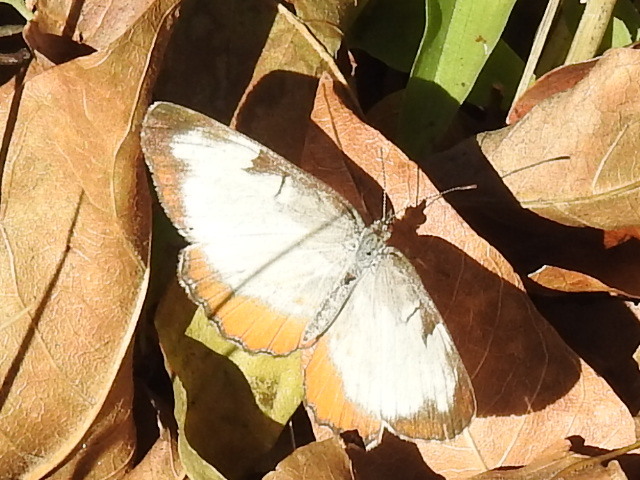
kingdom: Animalia
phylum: Arthropoda
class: Insecta
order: Lepidoptera
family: Nymphalidae
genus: Mestra
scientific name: Mestra amymone
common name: Common mestra
